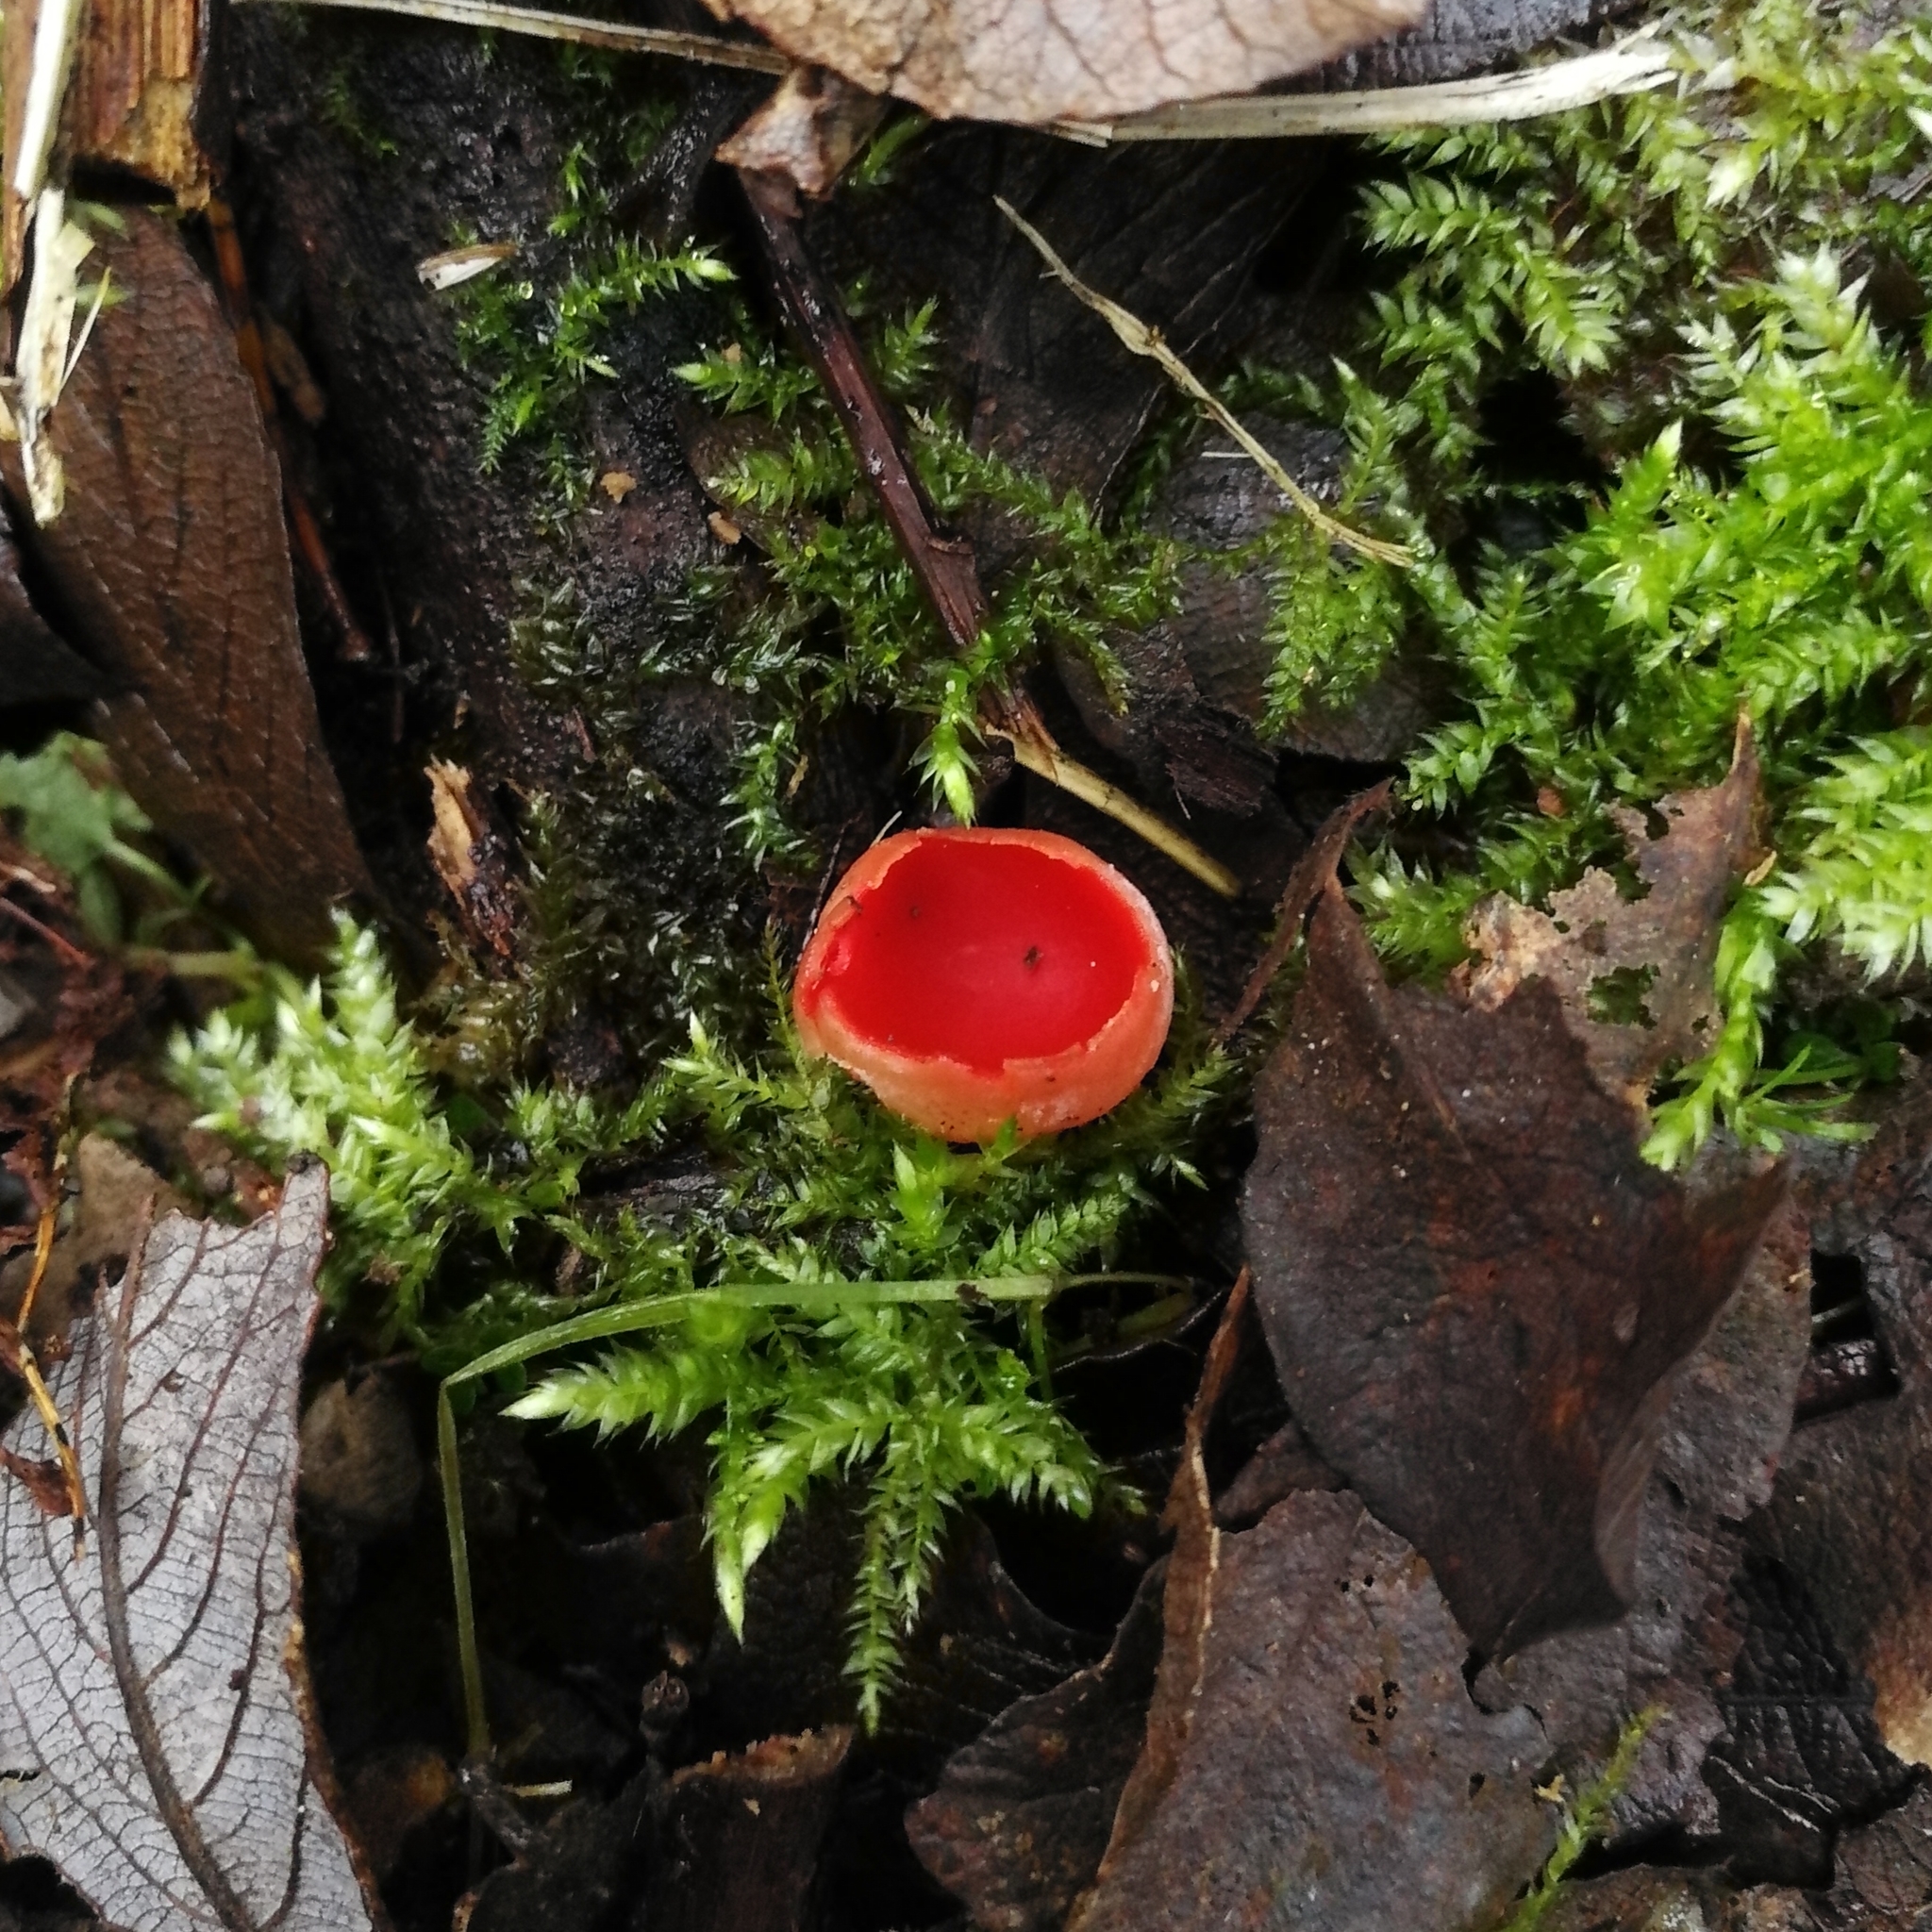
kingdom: Fungi
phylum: Ascomycota
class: Pezizomycetes
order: Pezizales
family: Sarcoscyphaceae
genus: Sarcoscypha
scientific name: Sarcoscypha
